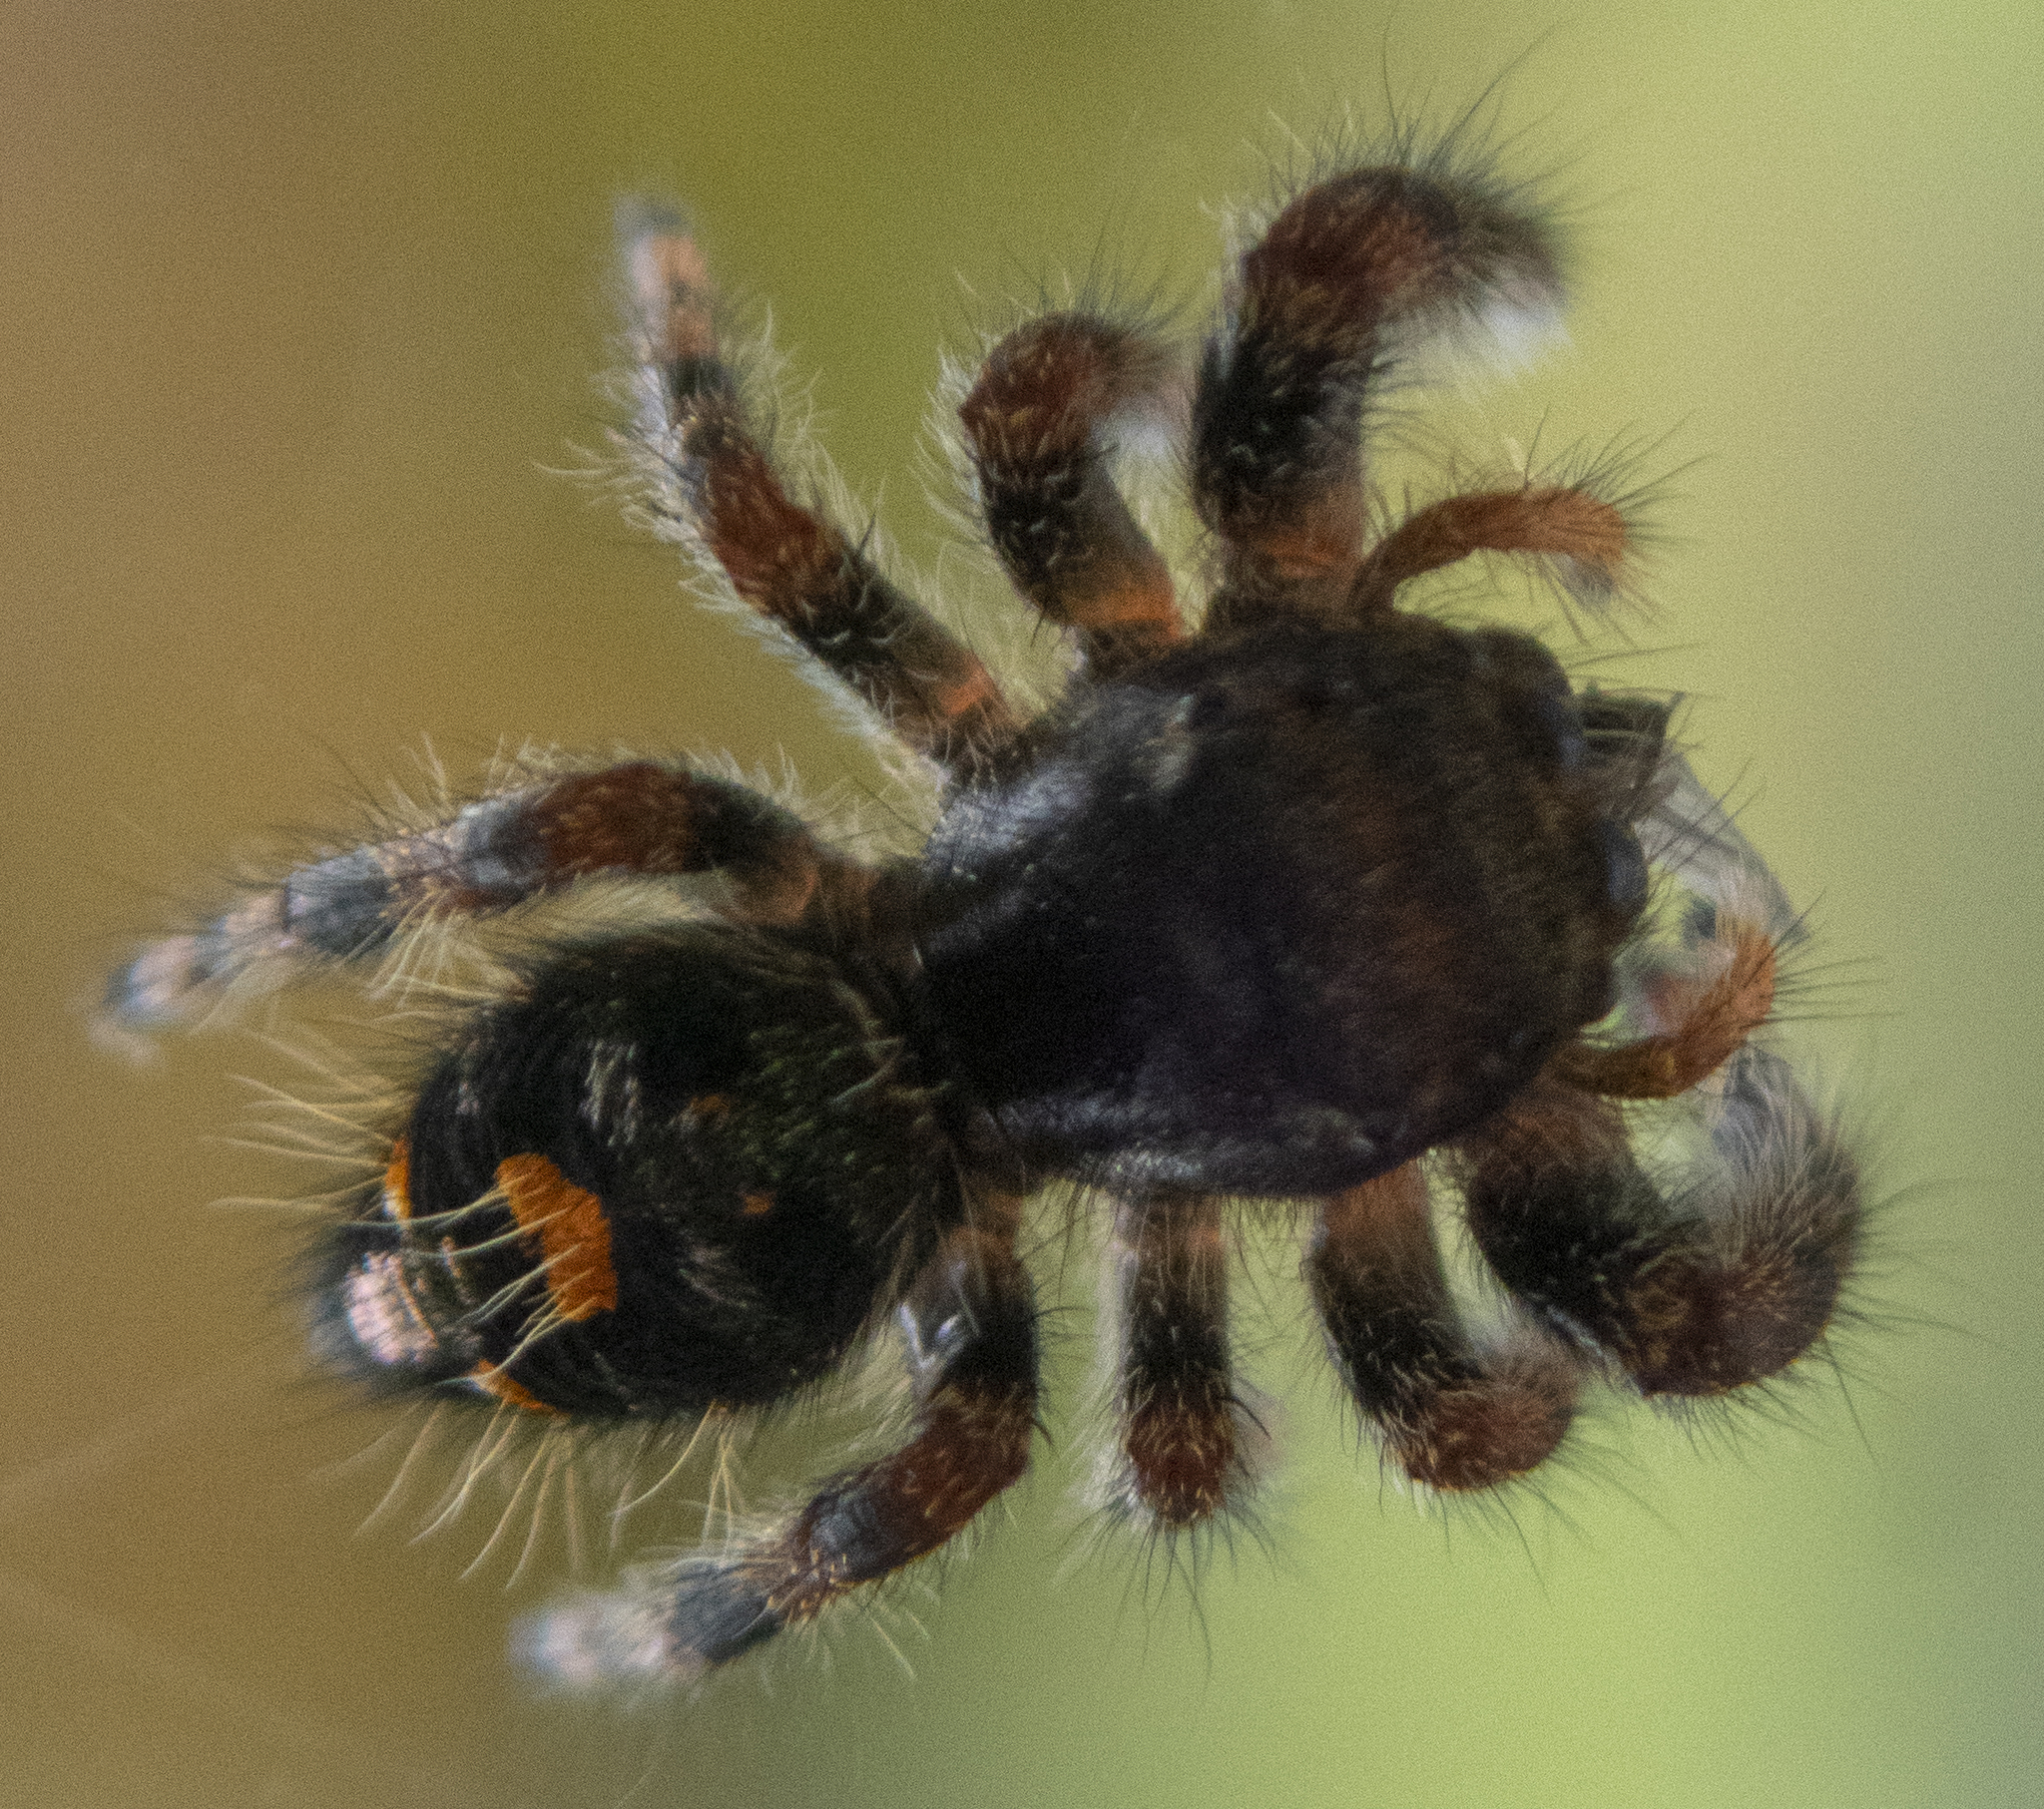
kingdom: Animalia
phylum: Arthropoda
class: Arachnida
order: Araneae
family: Salticidae
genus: Phidippus
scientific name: Phidippus audax
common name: Bold jumper
